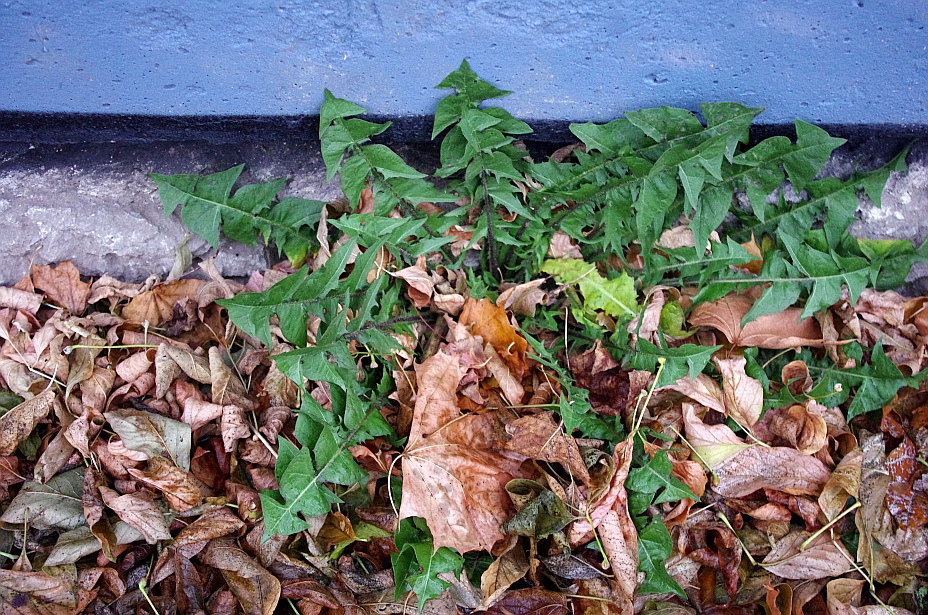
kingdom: Plantae
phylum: Tracheophyta
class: Magnoliopsida
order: Asterales
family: Asteraceae
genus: Taraxacum
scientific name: Taraxacum officinale
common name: Common dandelion
